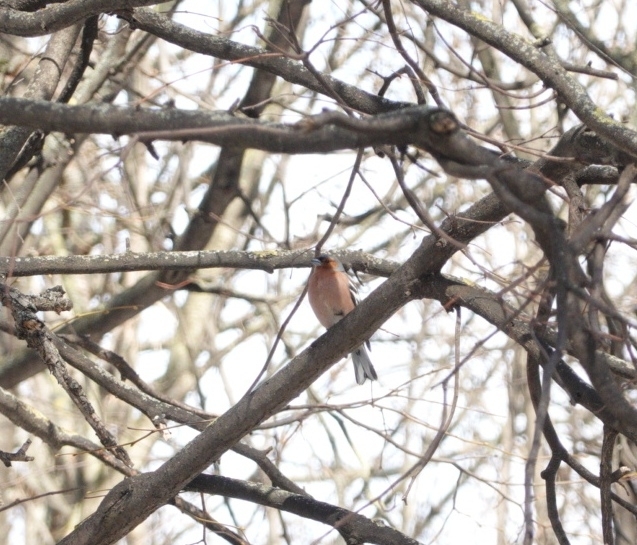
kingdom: Animalia
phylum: Chordata
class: Aves
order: Passeriformes
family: Fringillidae
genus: Fringilla
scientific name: Fringilla coelebs
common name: Common chaffinch
